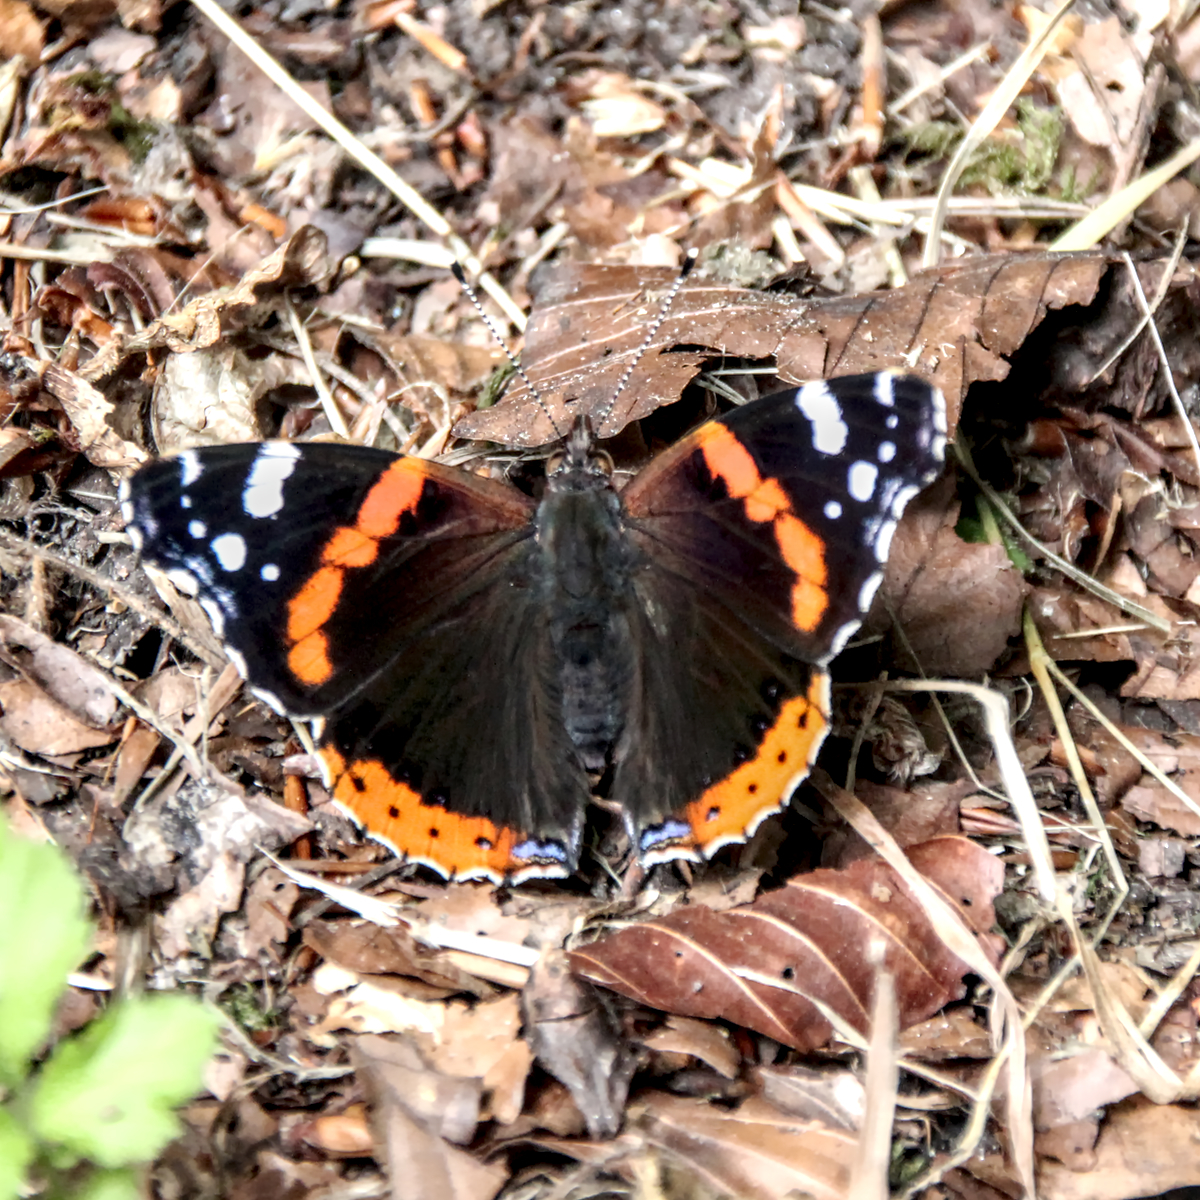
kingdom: Animalia
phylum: Arthropoda
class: Insecta
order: Lepidoptera
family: Nymphalidae
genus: Vanessa
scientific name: Vanessa atalanta
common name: Red admiral
